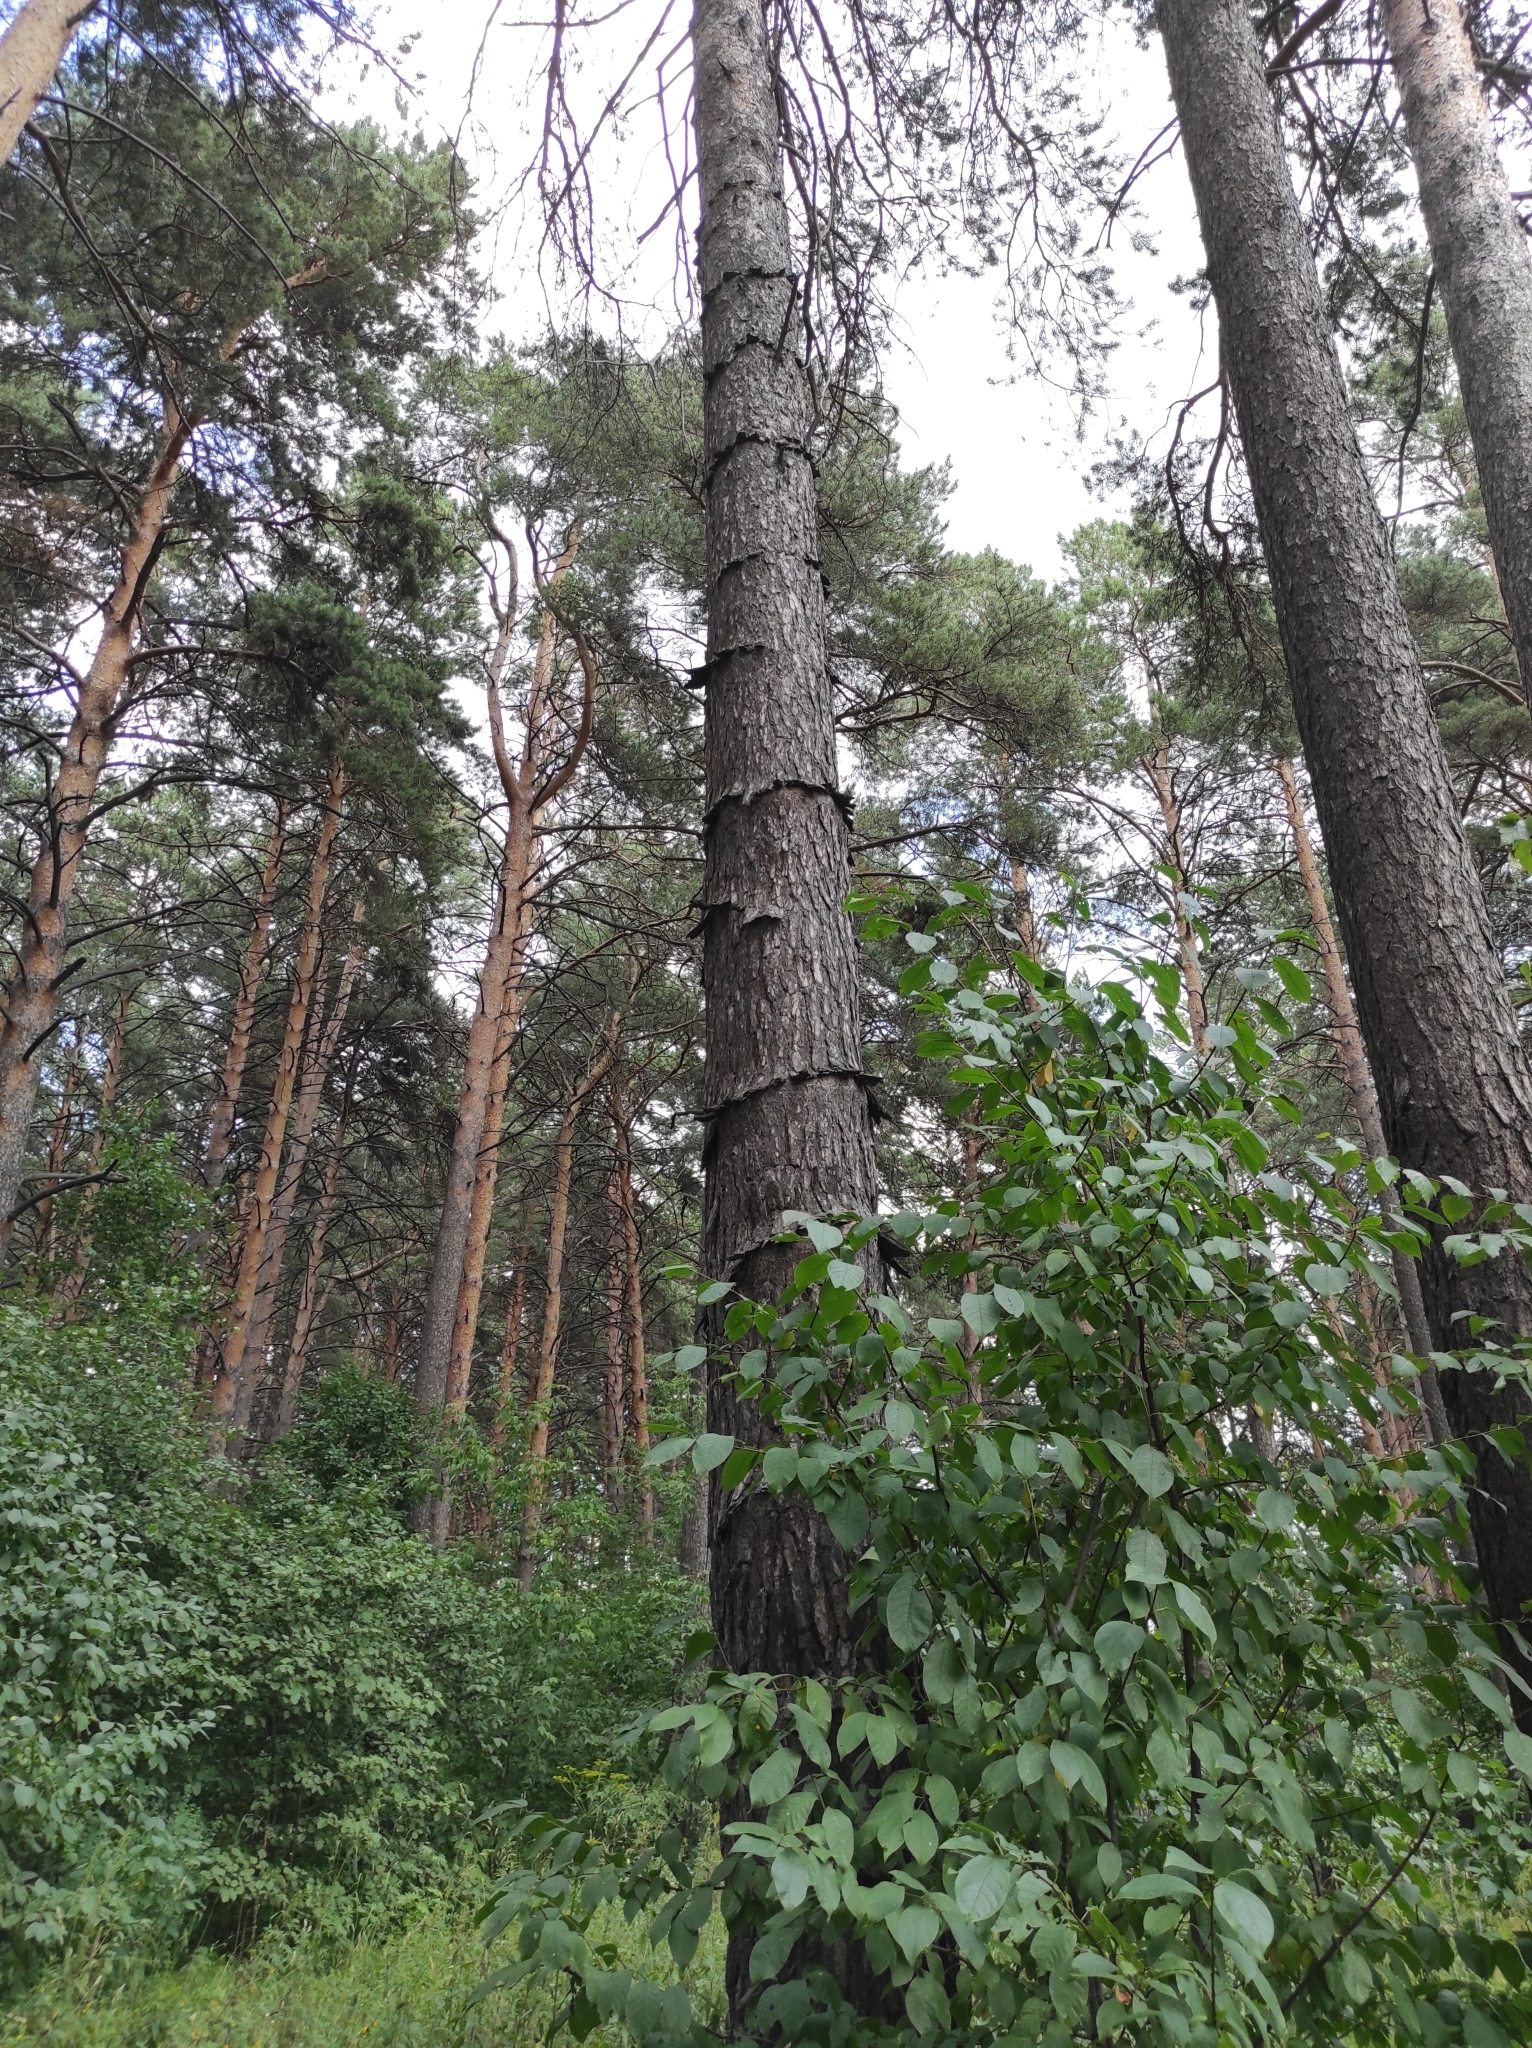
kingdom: Plantae
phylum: Tracheophyta
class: Pinopsida
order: Pinales
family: Pinaceae
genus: Pinus
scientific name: Pinus sylvestris
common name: Scots pine
